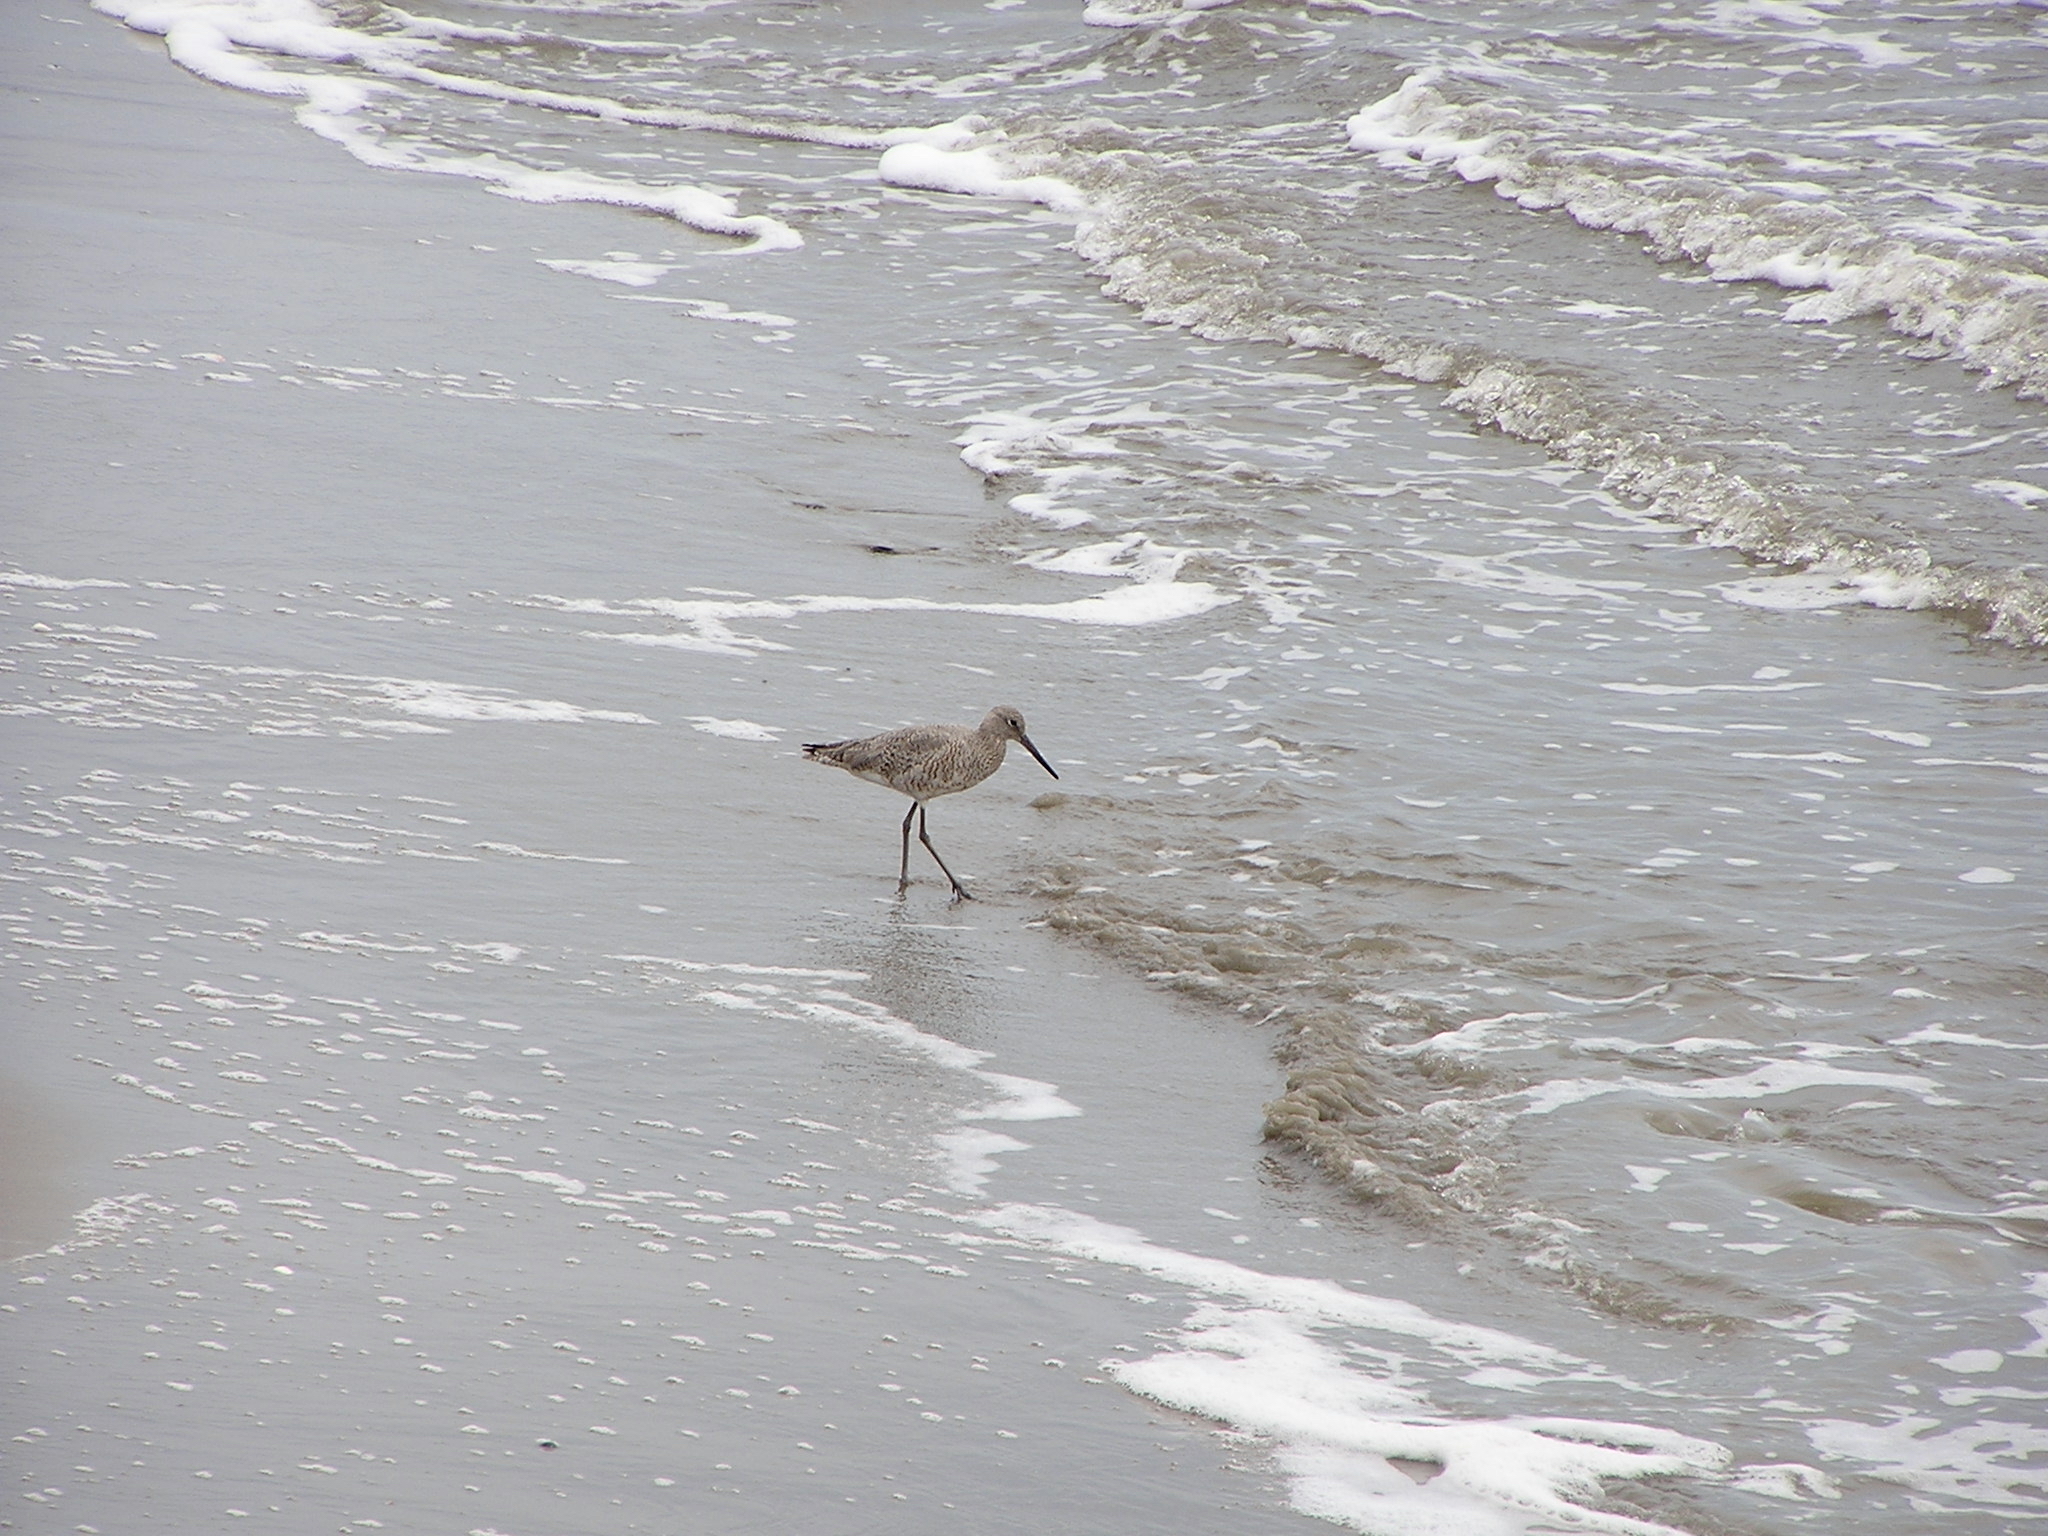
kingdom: Animalia
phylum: Chordata
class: Aves
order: Charadriiformes
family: Scolopacidae
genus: Tringa
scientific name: Tringa semipalmata
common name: Willet
